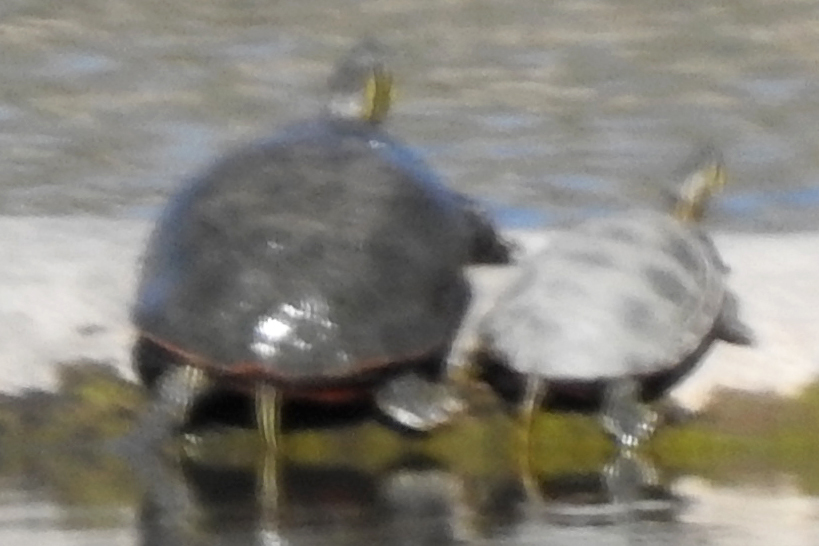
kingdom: Animalia
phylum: Chordata
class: Testudines
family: Emydidae
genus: Chrysemys
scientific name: Chrysemys picta
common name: Painted turtle
